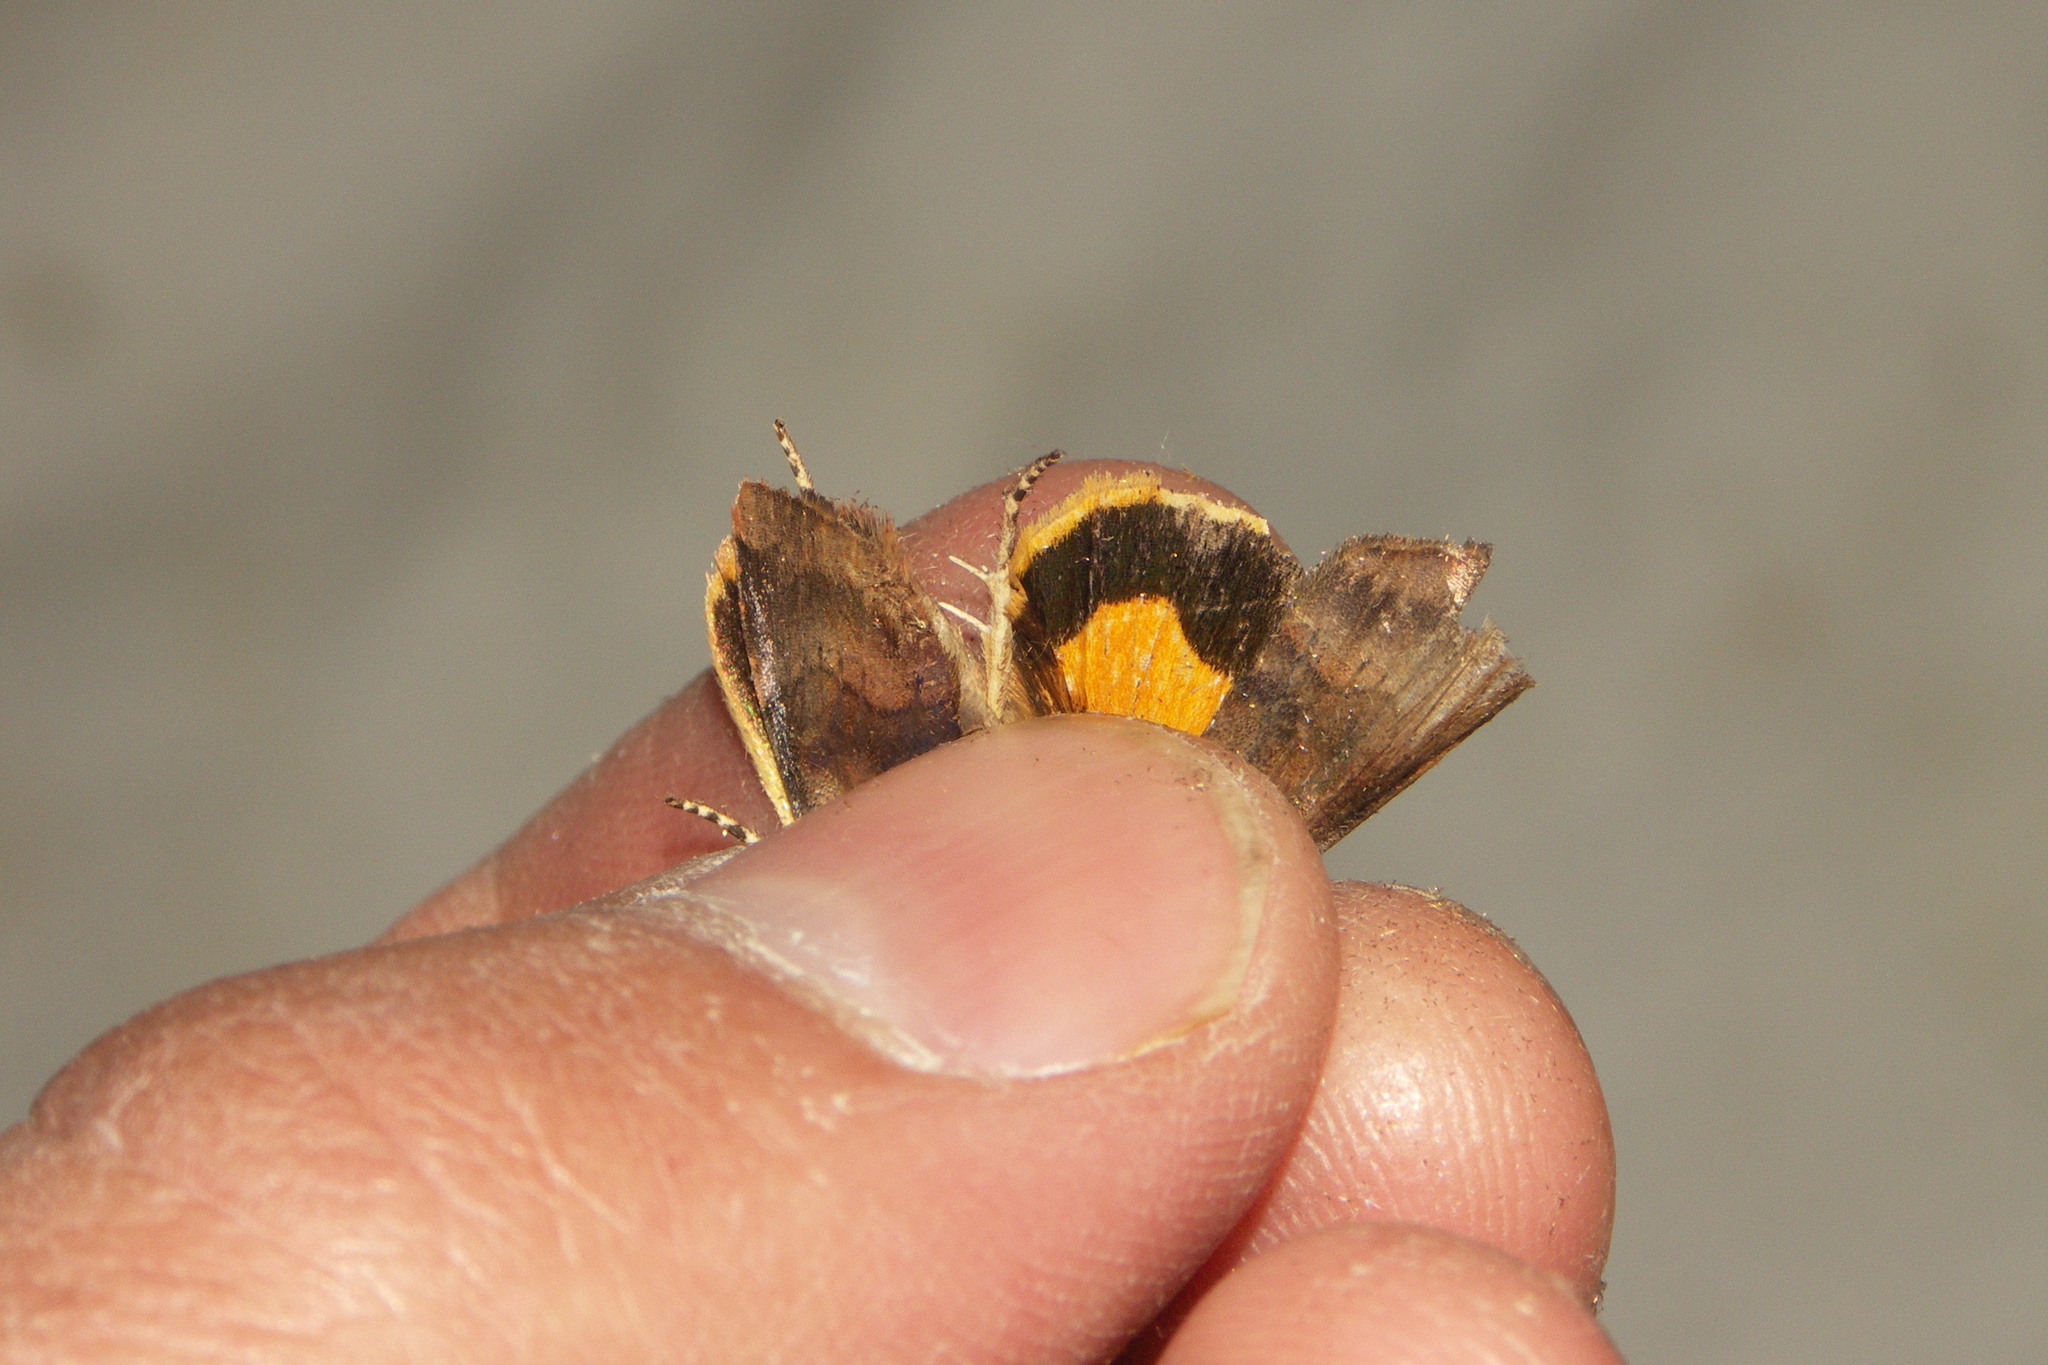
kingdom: Animalia
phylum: Arthropoda
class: Insecta
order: Lepidoptera
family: Noctuidae
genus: Noctua
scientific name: Noctua janthe
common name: Lesser broad-bordered yellow underwing
